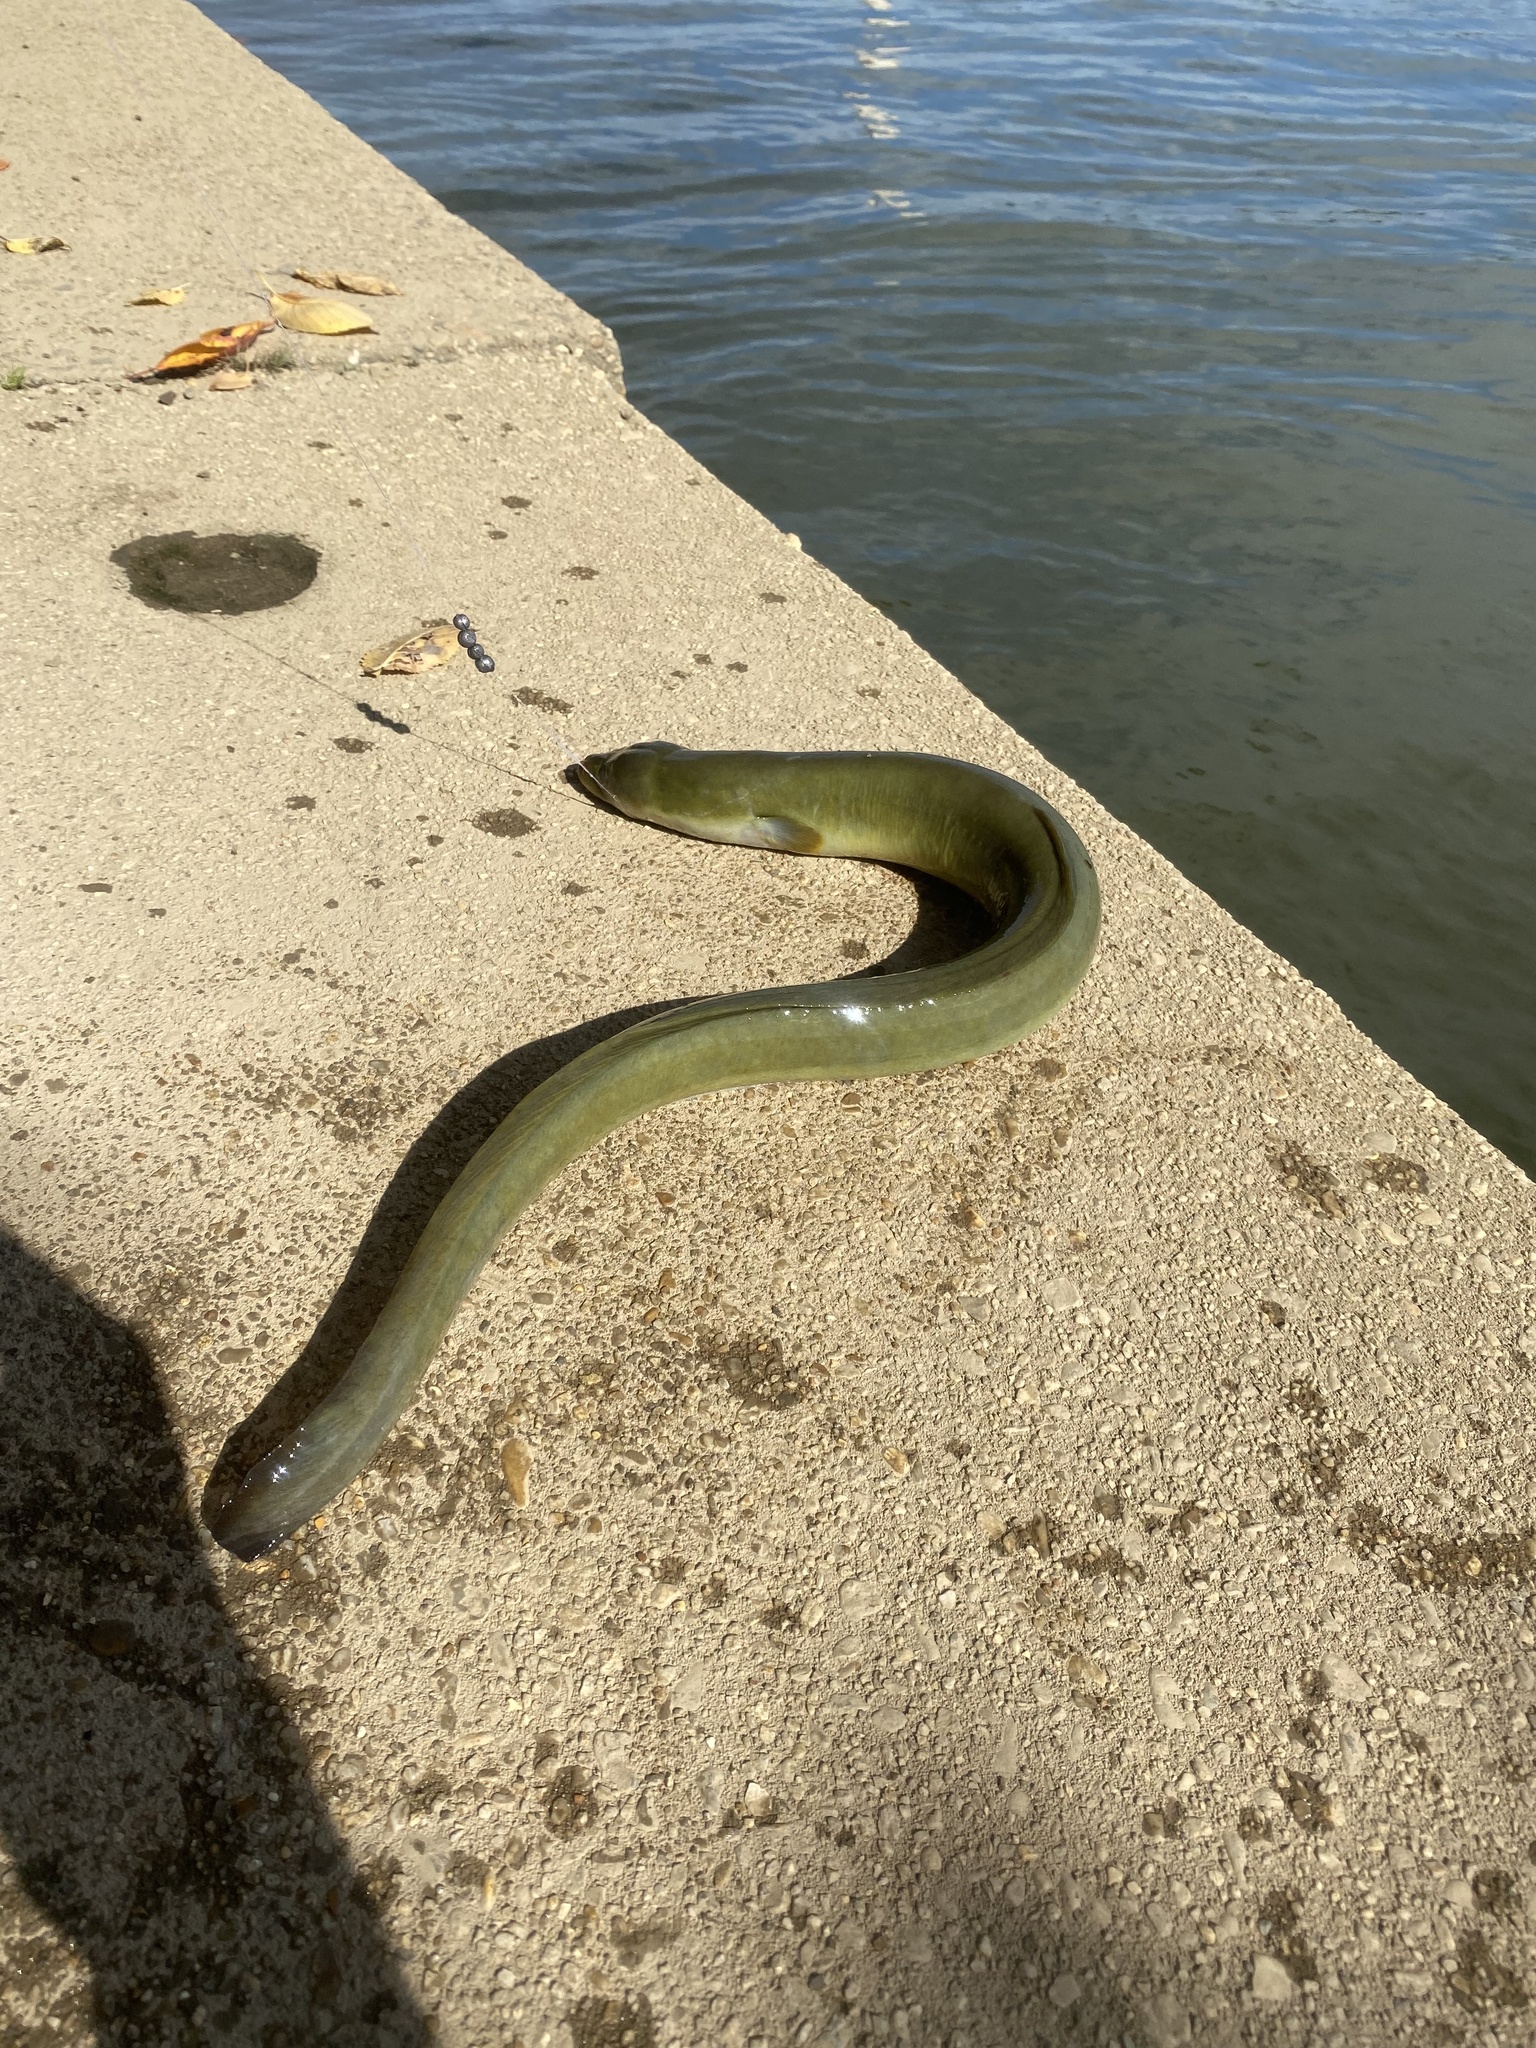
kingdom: Animalia
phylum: Chordata
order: Anguilliformes
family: Anguillidae
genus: Anguilla
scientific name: Anguilla rostrata
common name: American eel
